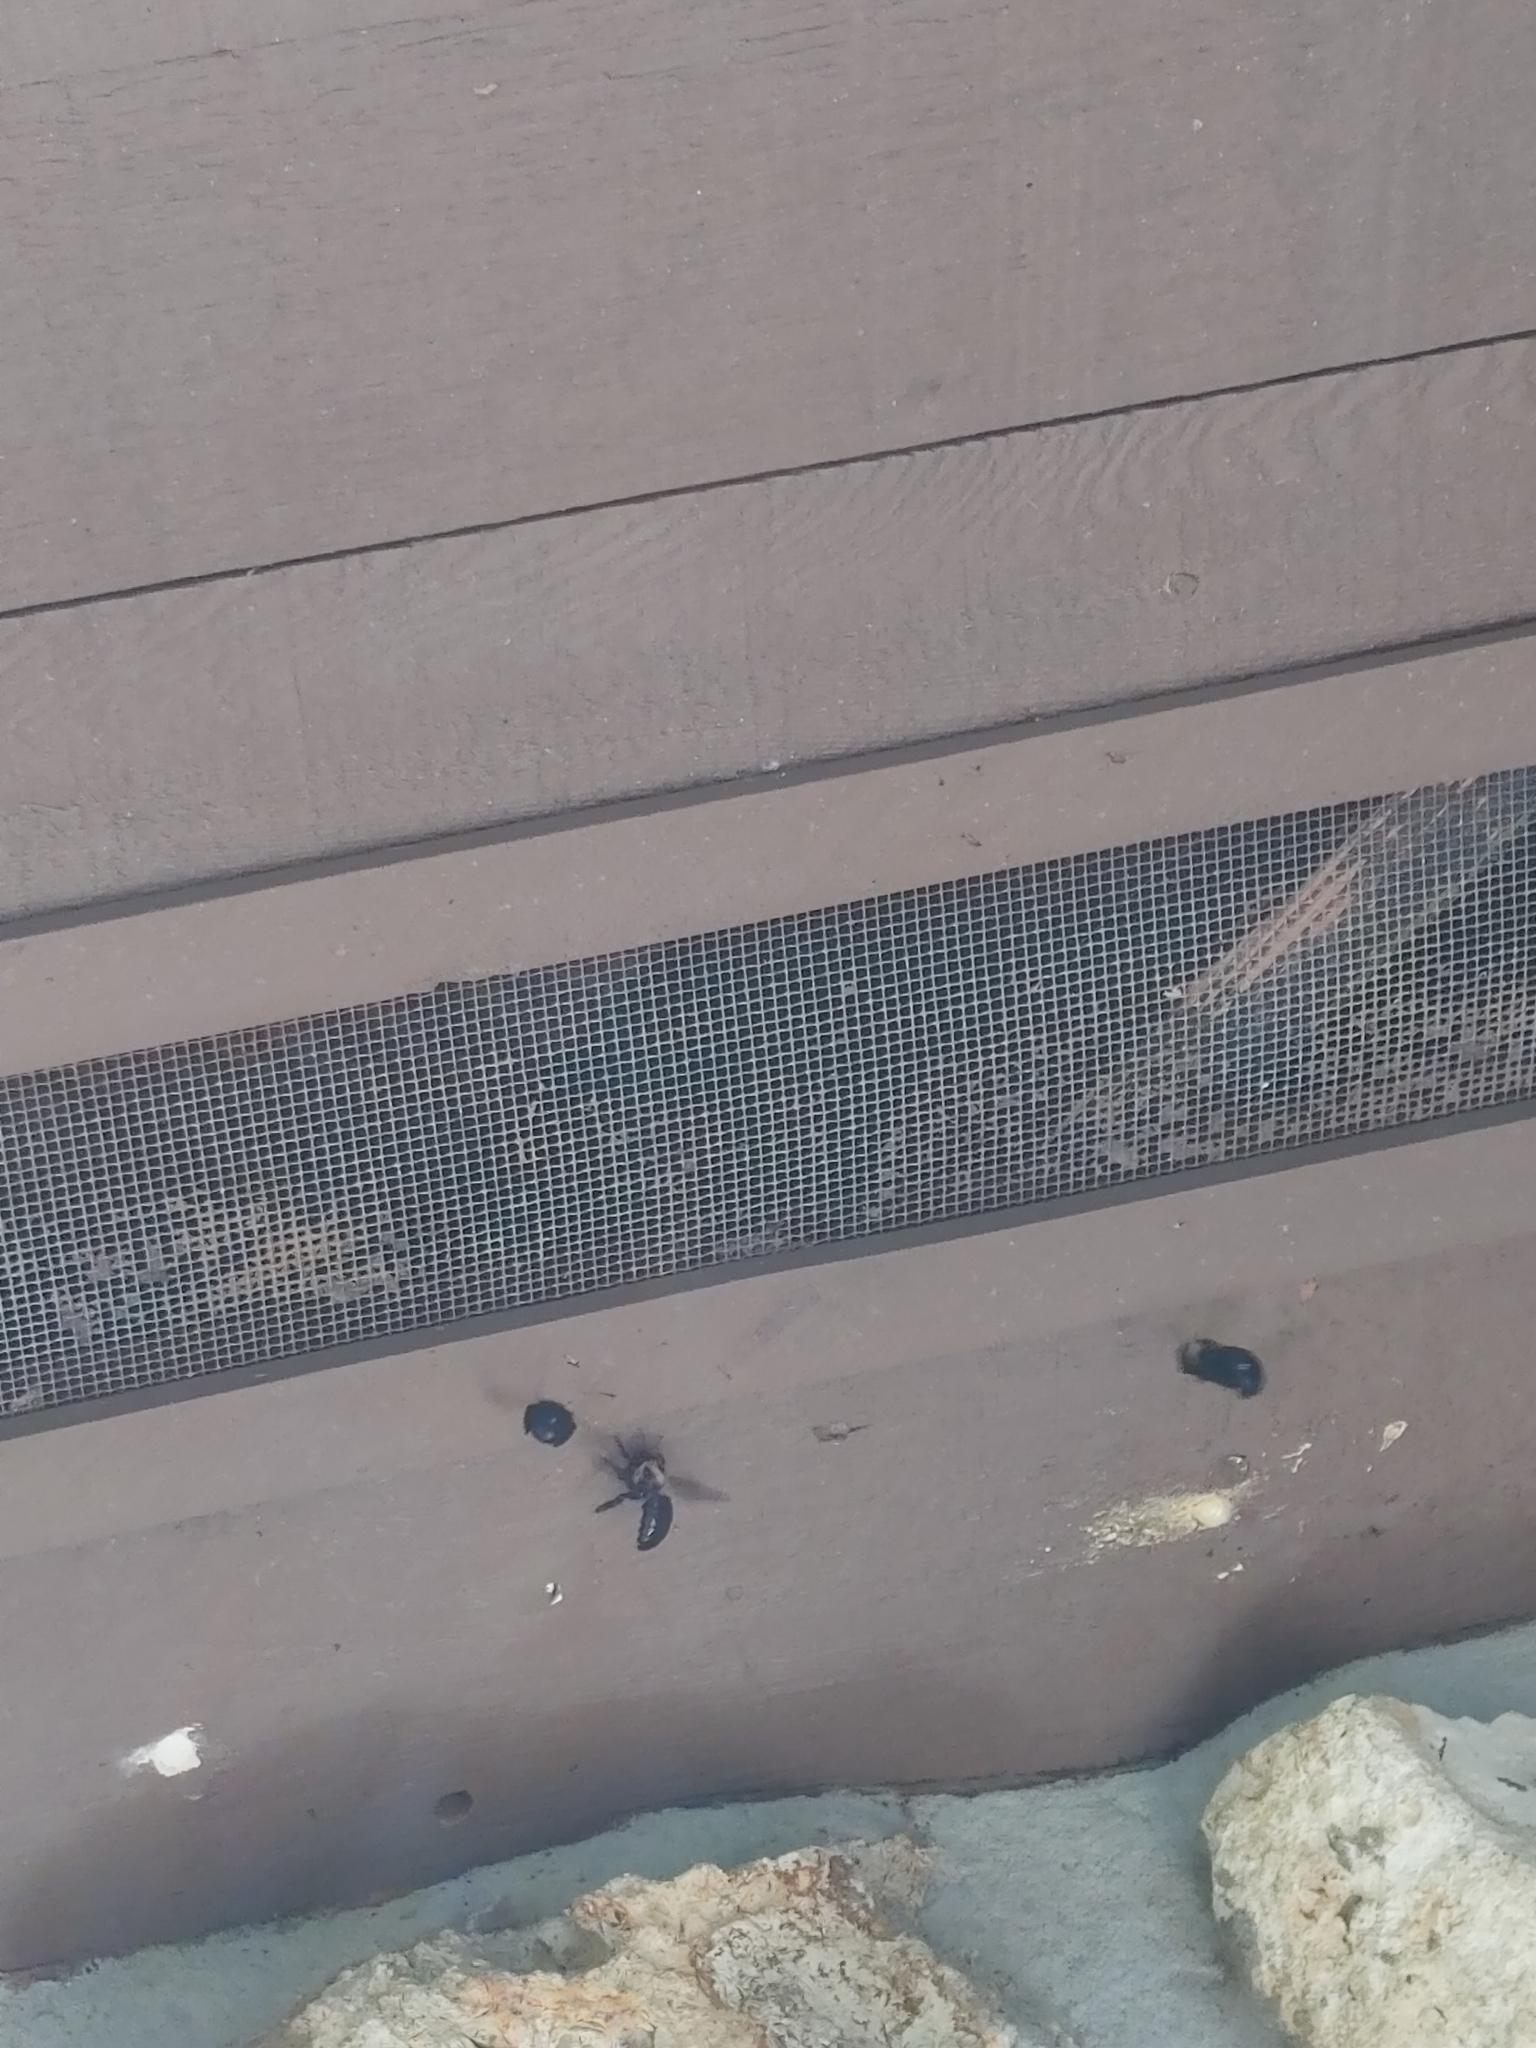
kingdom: Animalia
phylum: Arthropoda
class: Insecta
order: Hymenoptera
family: Apidae
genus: Xylocopa
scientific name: Xylocopa virginica
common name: Carpenter bee
